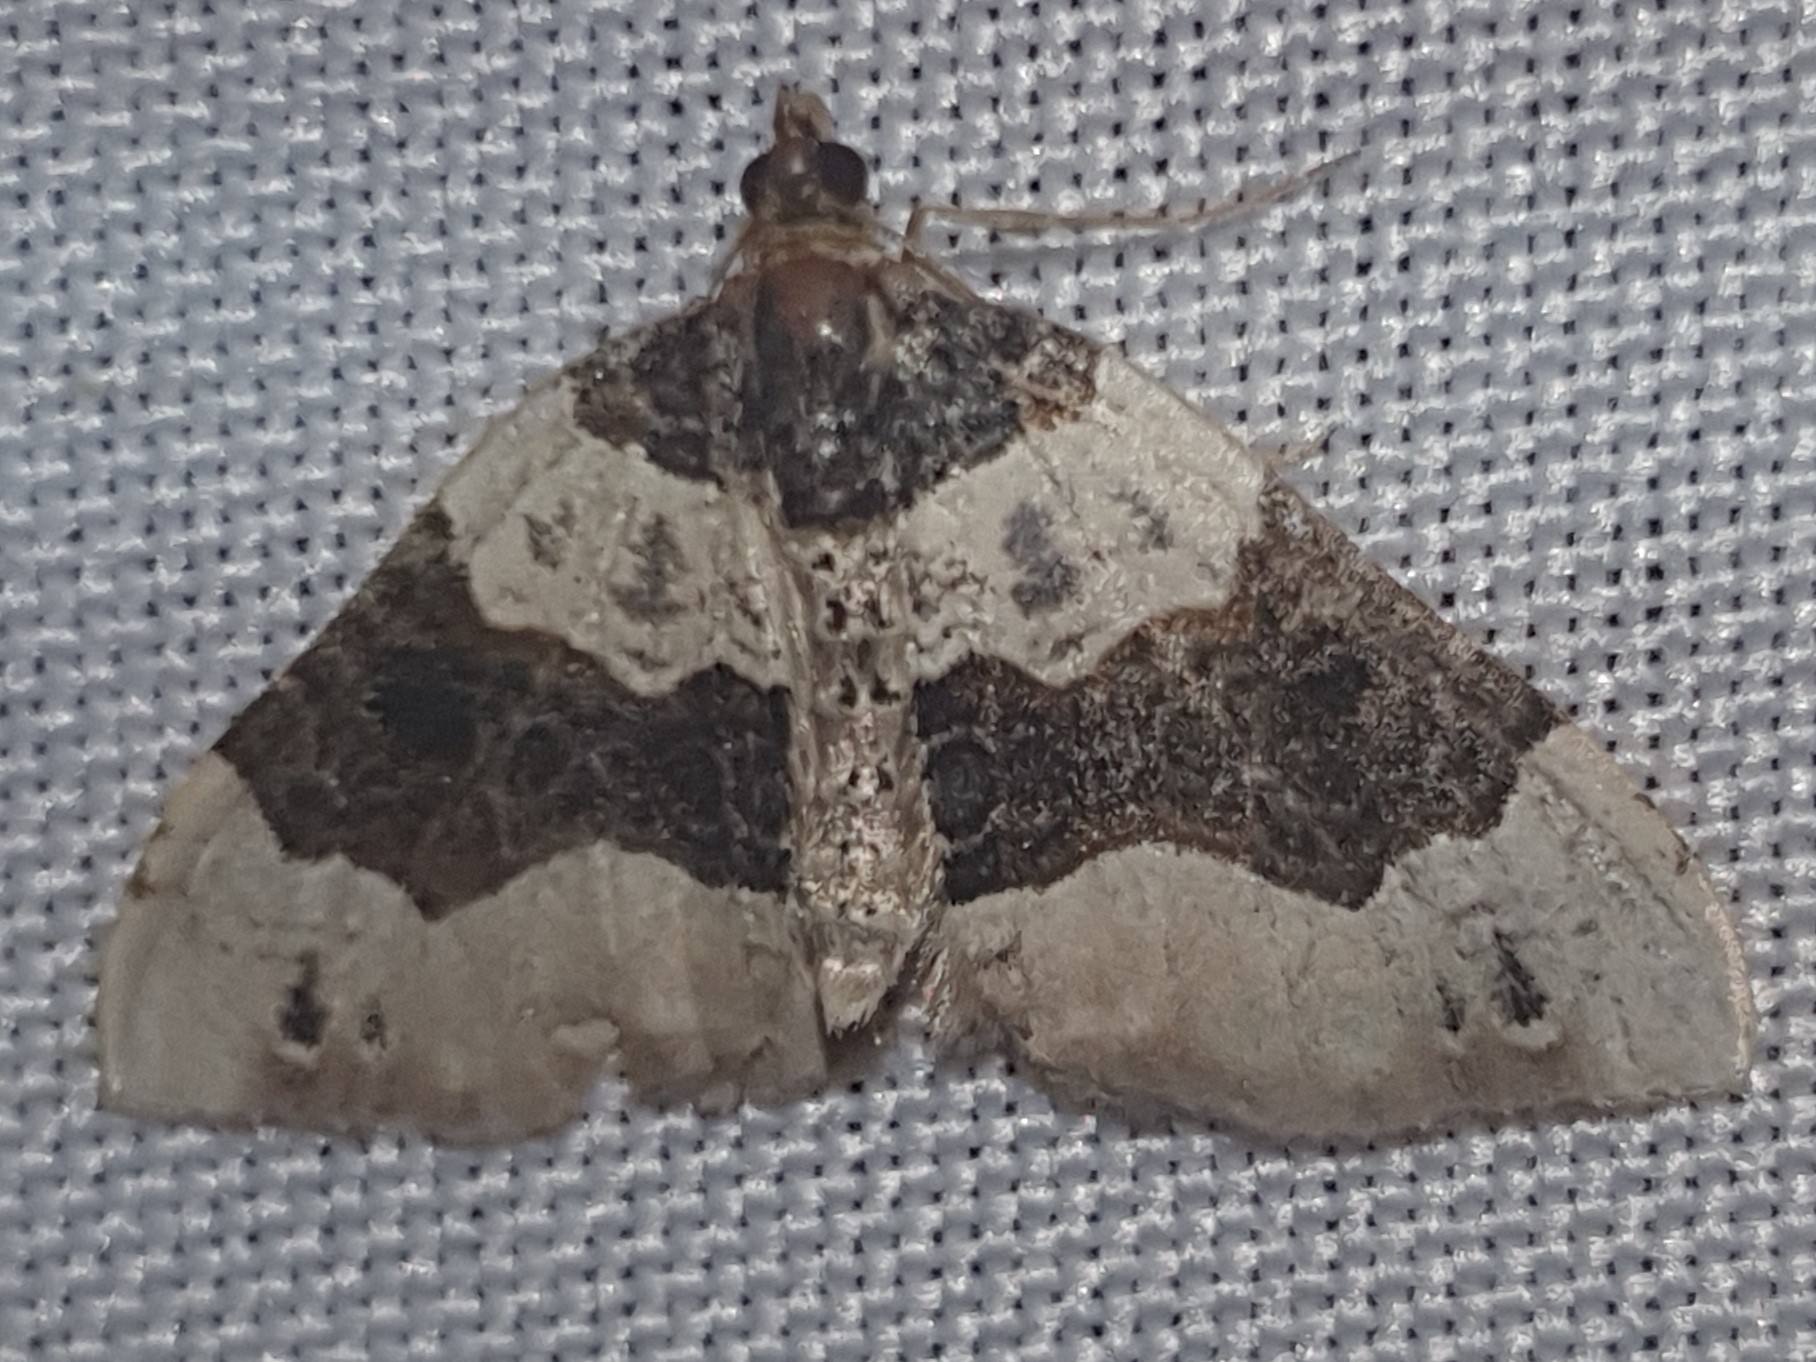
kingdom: Animalia
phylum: Arthropoda
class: Insecta
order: Lepidoptera
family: Geometridae
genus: Cosmorhoe
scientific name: Cosmorhoe ocellata
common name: Purple bar
